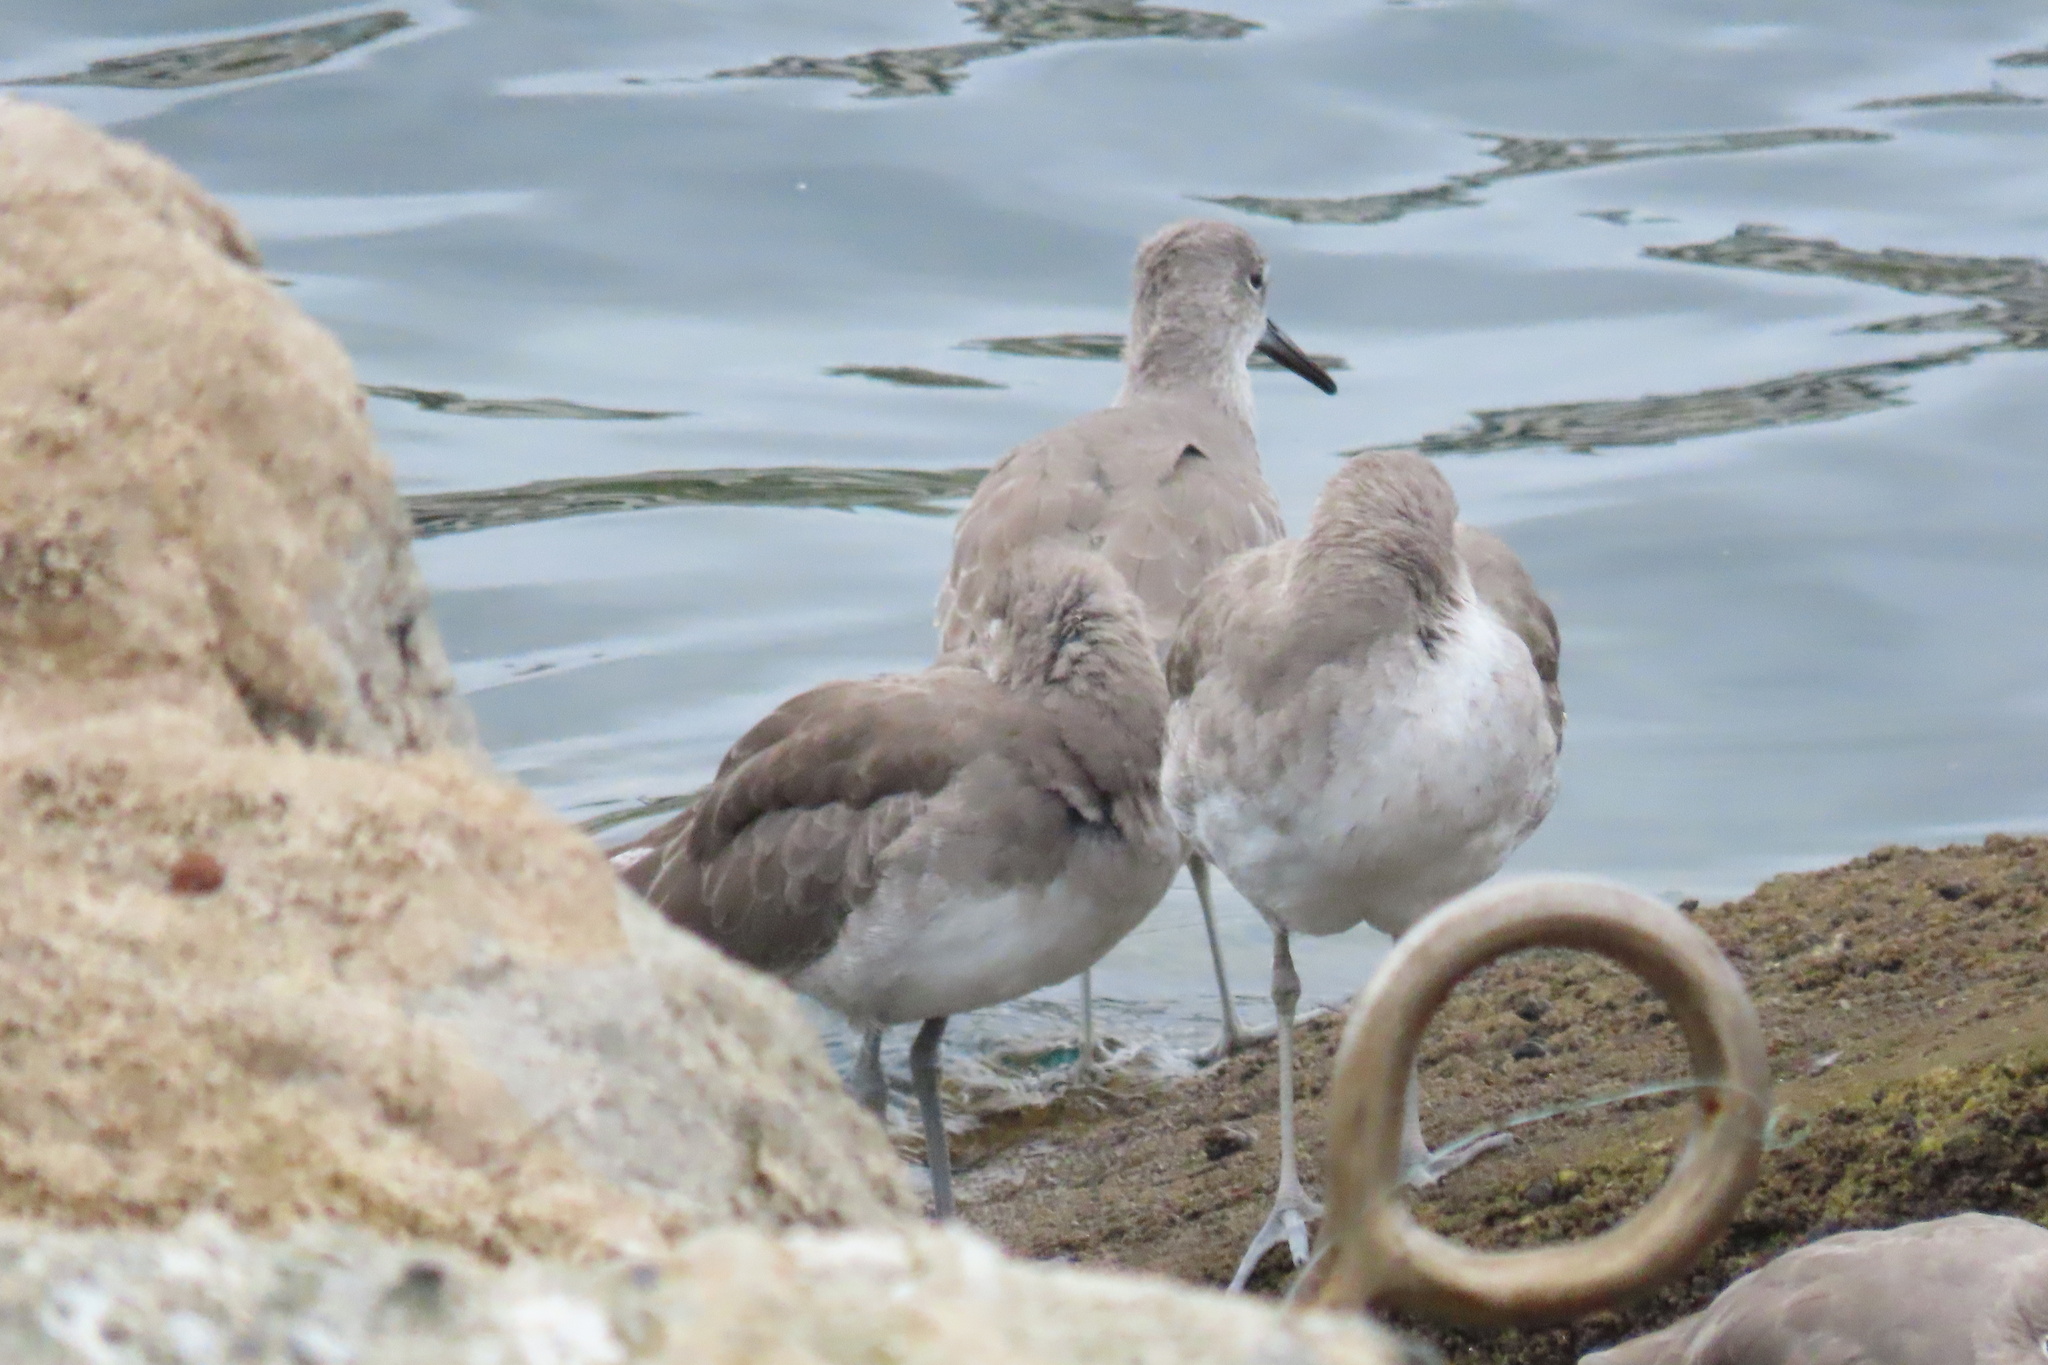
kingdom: Animalia
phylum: Chordata
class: Aves
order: Charadriiformes
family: Scolopacidae
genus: Tringa
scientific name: Tringa semipalmata
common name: Willet
